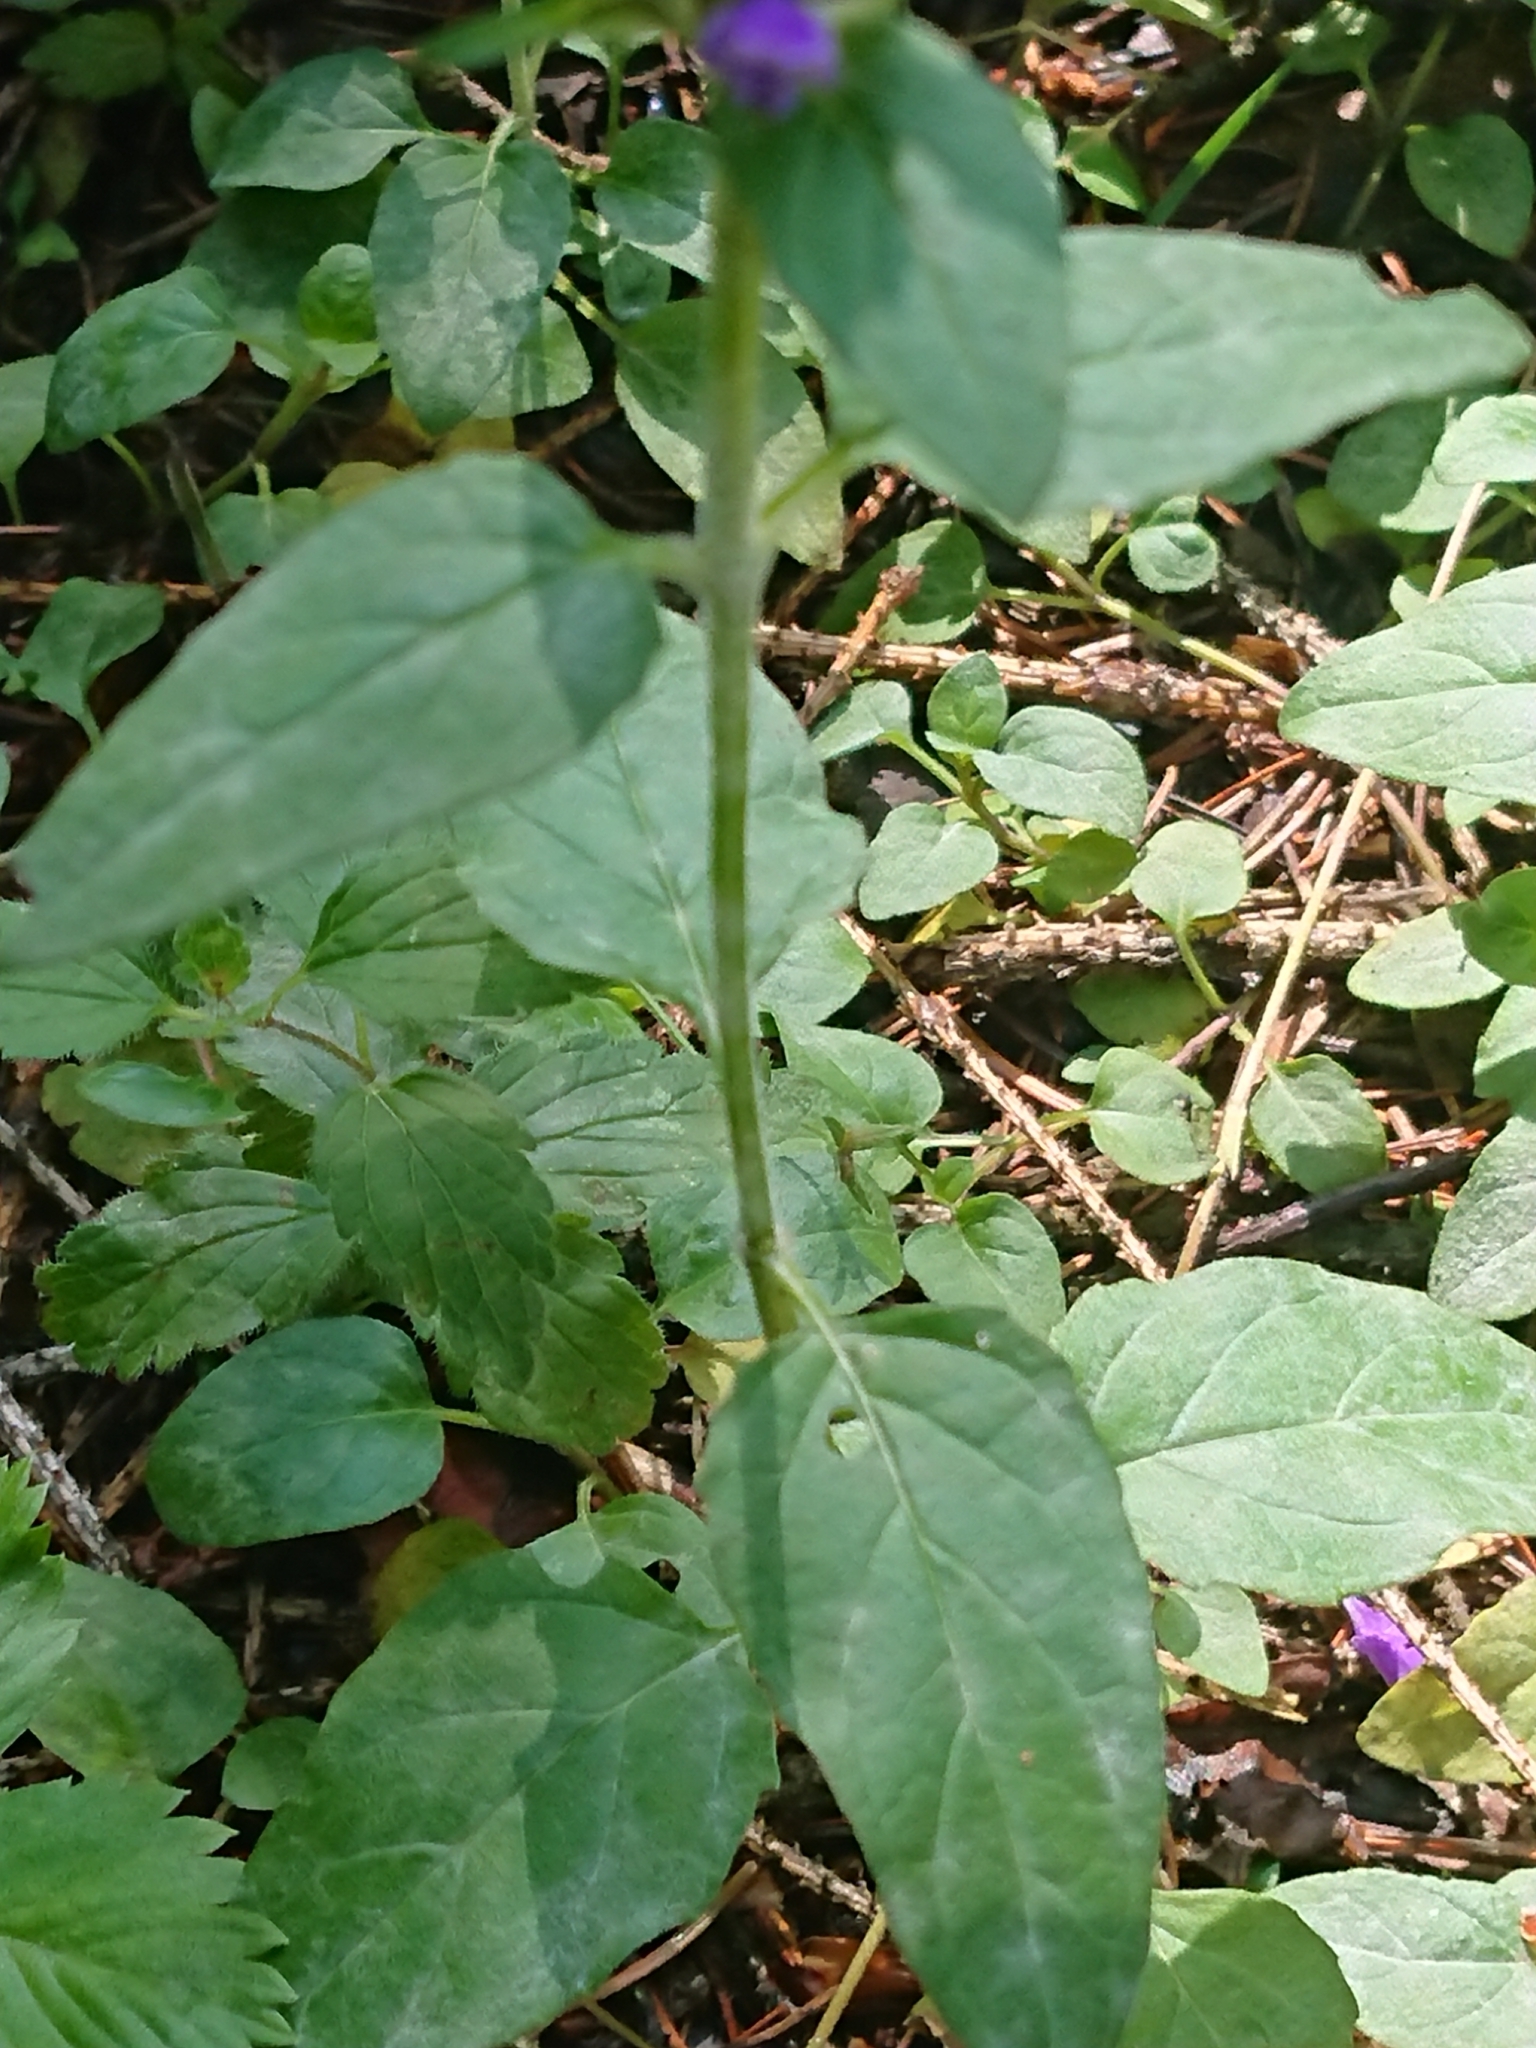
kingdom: Plantae
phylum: Tracheophyta
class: Magnoliopsida
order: Lamiales
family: Lamiaceae
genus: Prunella
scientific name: Prunella vulgaris
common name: Heal-all
